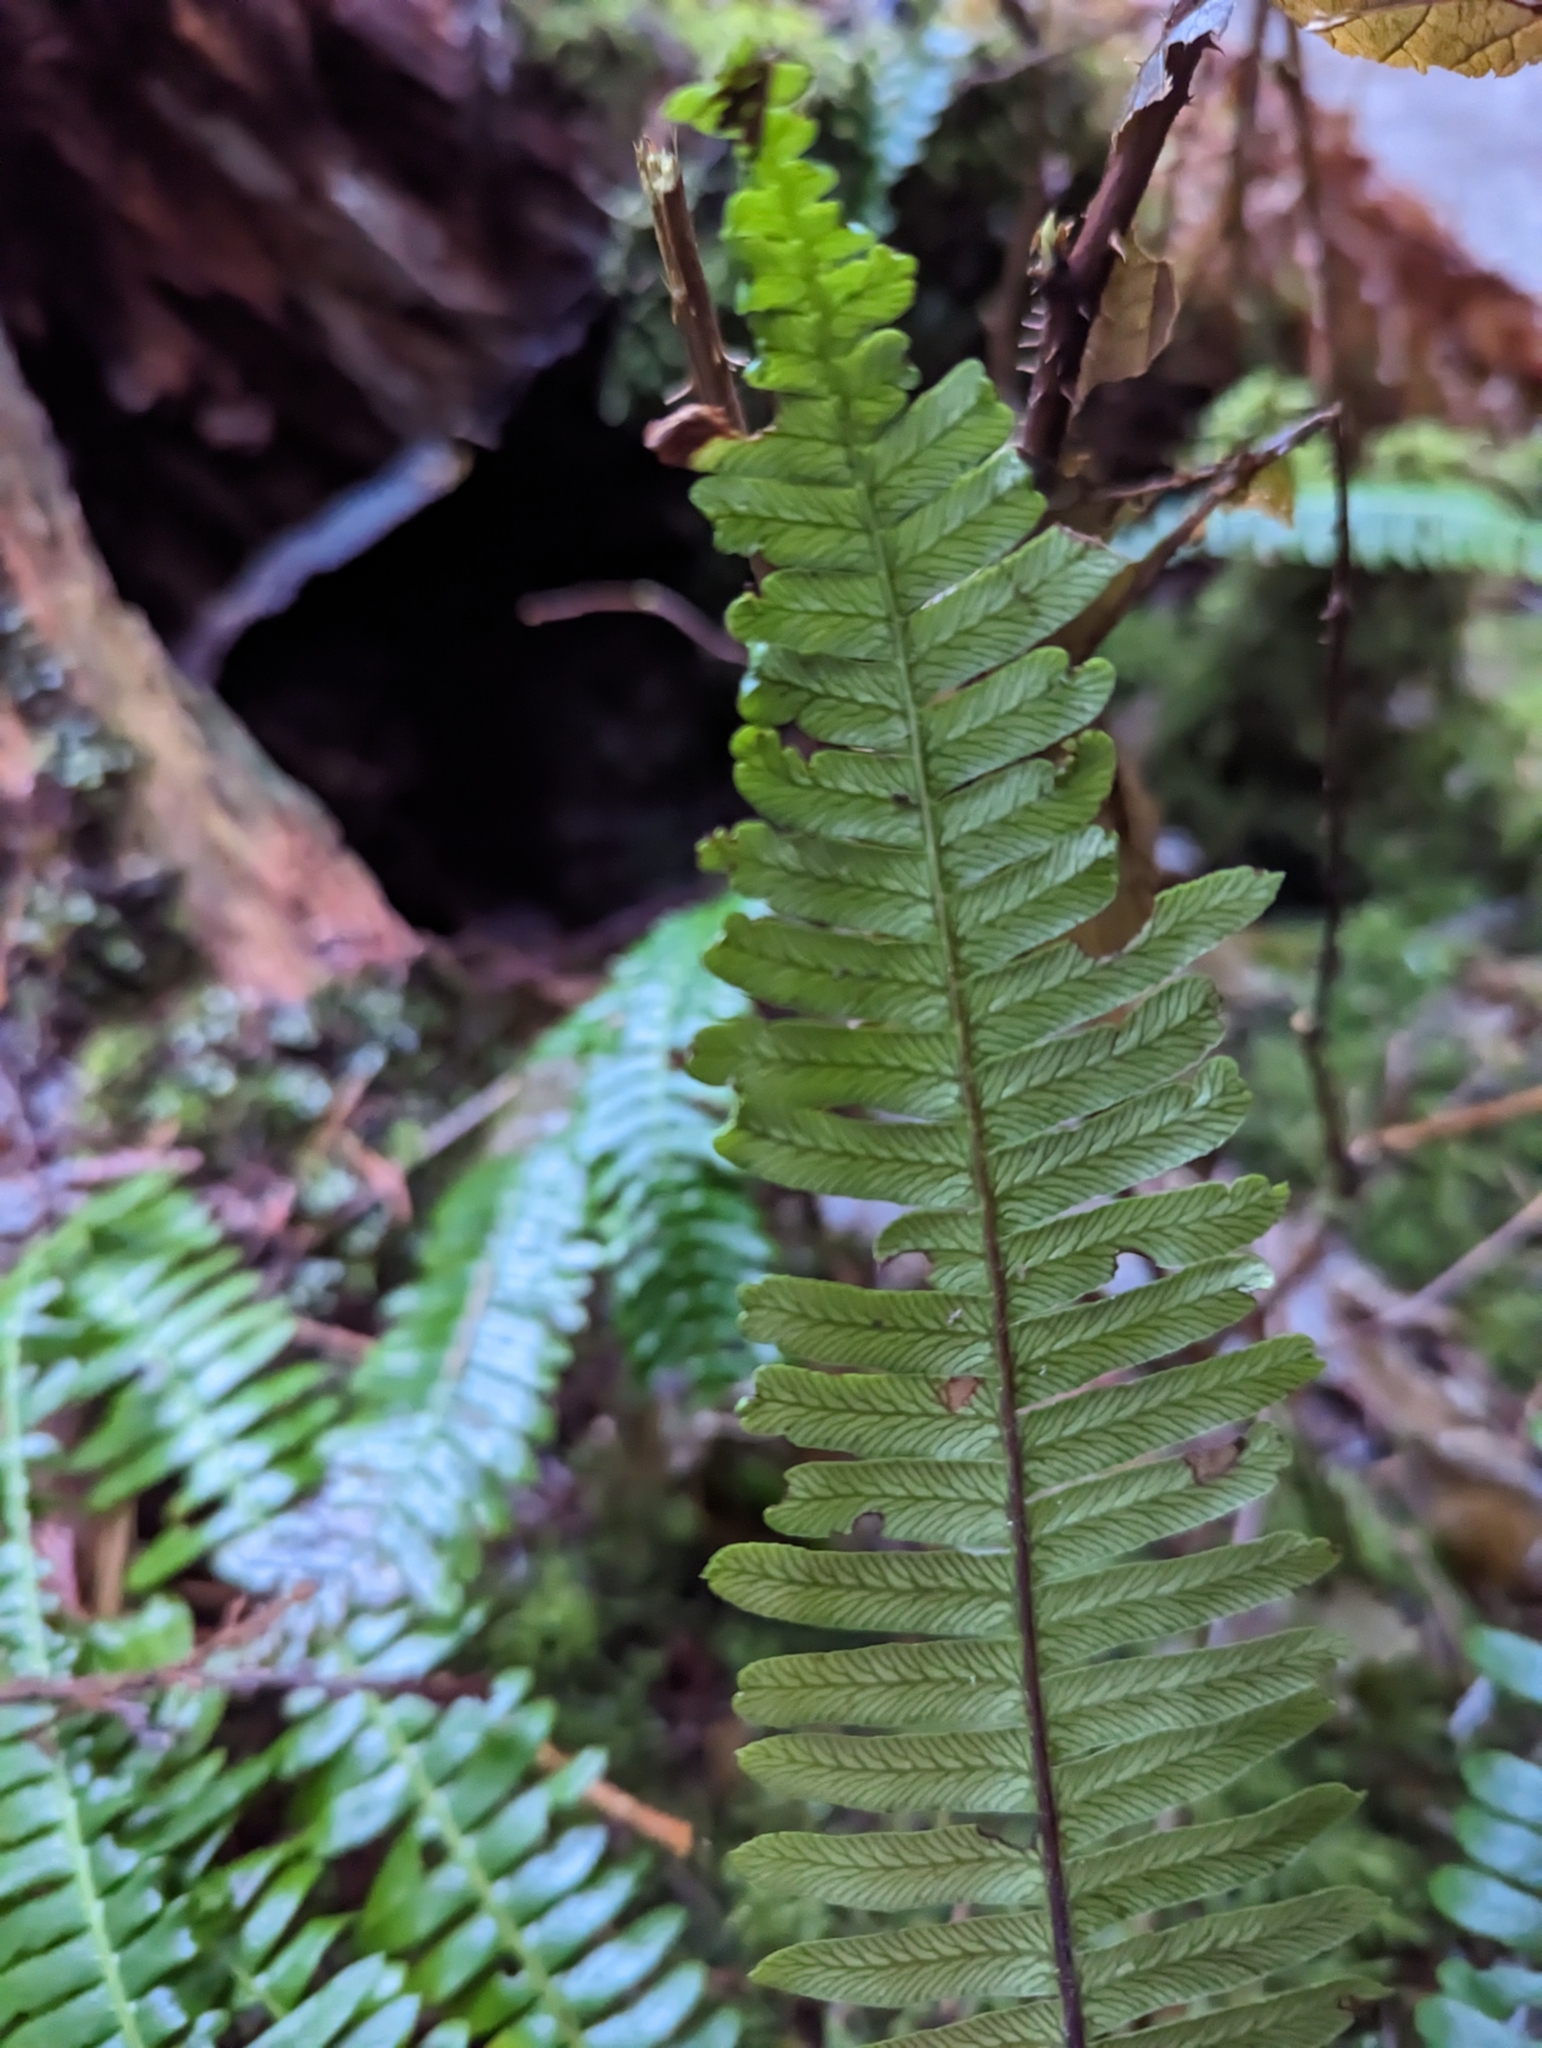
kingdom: Plantae
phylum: Tracheophyta
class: Polypodiopsida
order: Polypodiales
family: Blechnaceae
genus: Struthiopteris
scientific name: Struthiopteris spicant
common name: Deer fern
